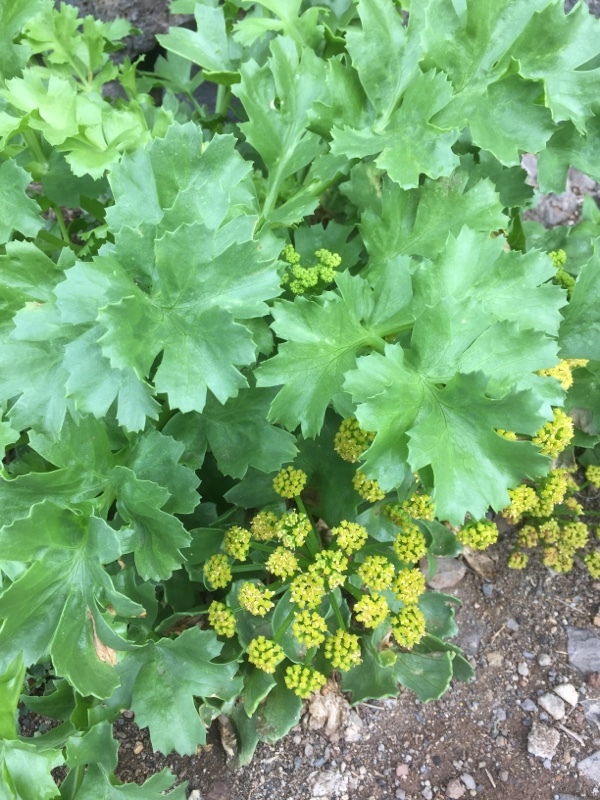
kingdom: Plantae
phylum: Tracheophyta
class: Magnoliopsida
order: Apiales
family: Apiaceae
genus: Astydamia
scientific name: Astydamia latifolia
